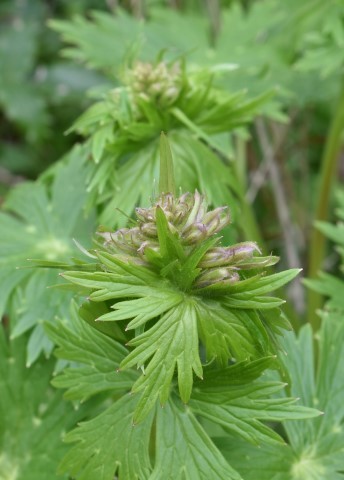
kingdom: Plantae
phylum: Tracheophyta
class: Magnoliopsida
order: Ranunculales
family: Ranunculaceae
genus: Delphinium
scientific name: Delphinium trolliifolium
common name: Cow-poison
